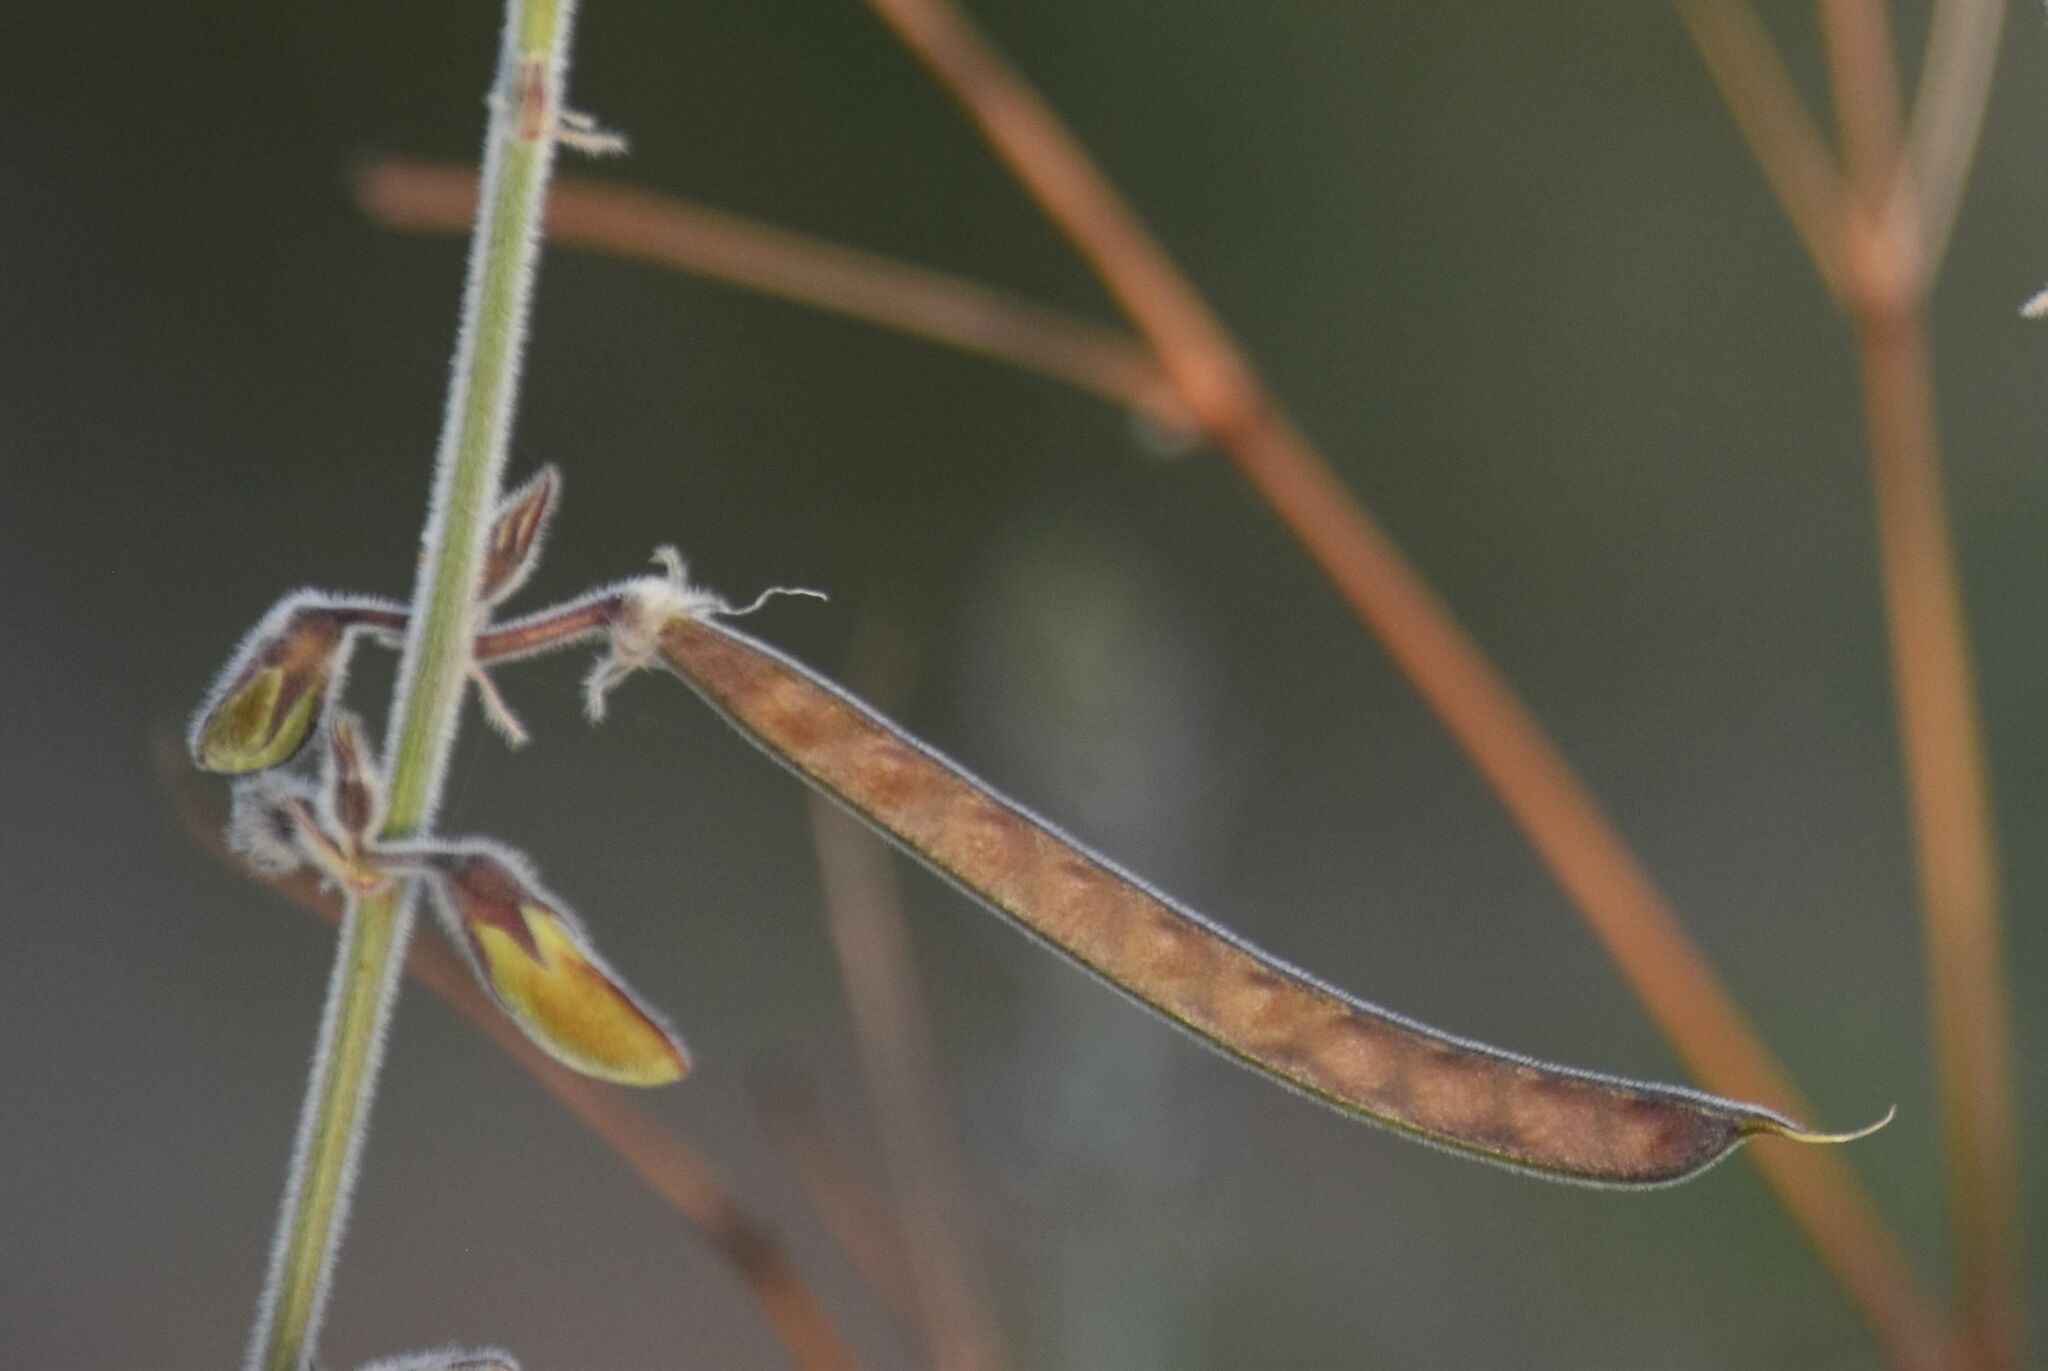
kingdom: Plantae
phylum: Tracheophyta
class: Magnoliopsida
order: Fabales
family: Fabaceae
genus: Tephrosia
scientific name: Tephrosia cana
